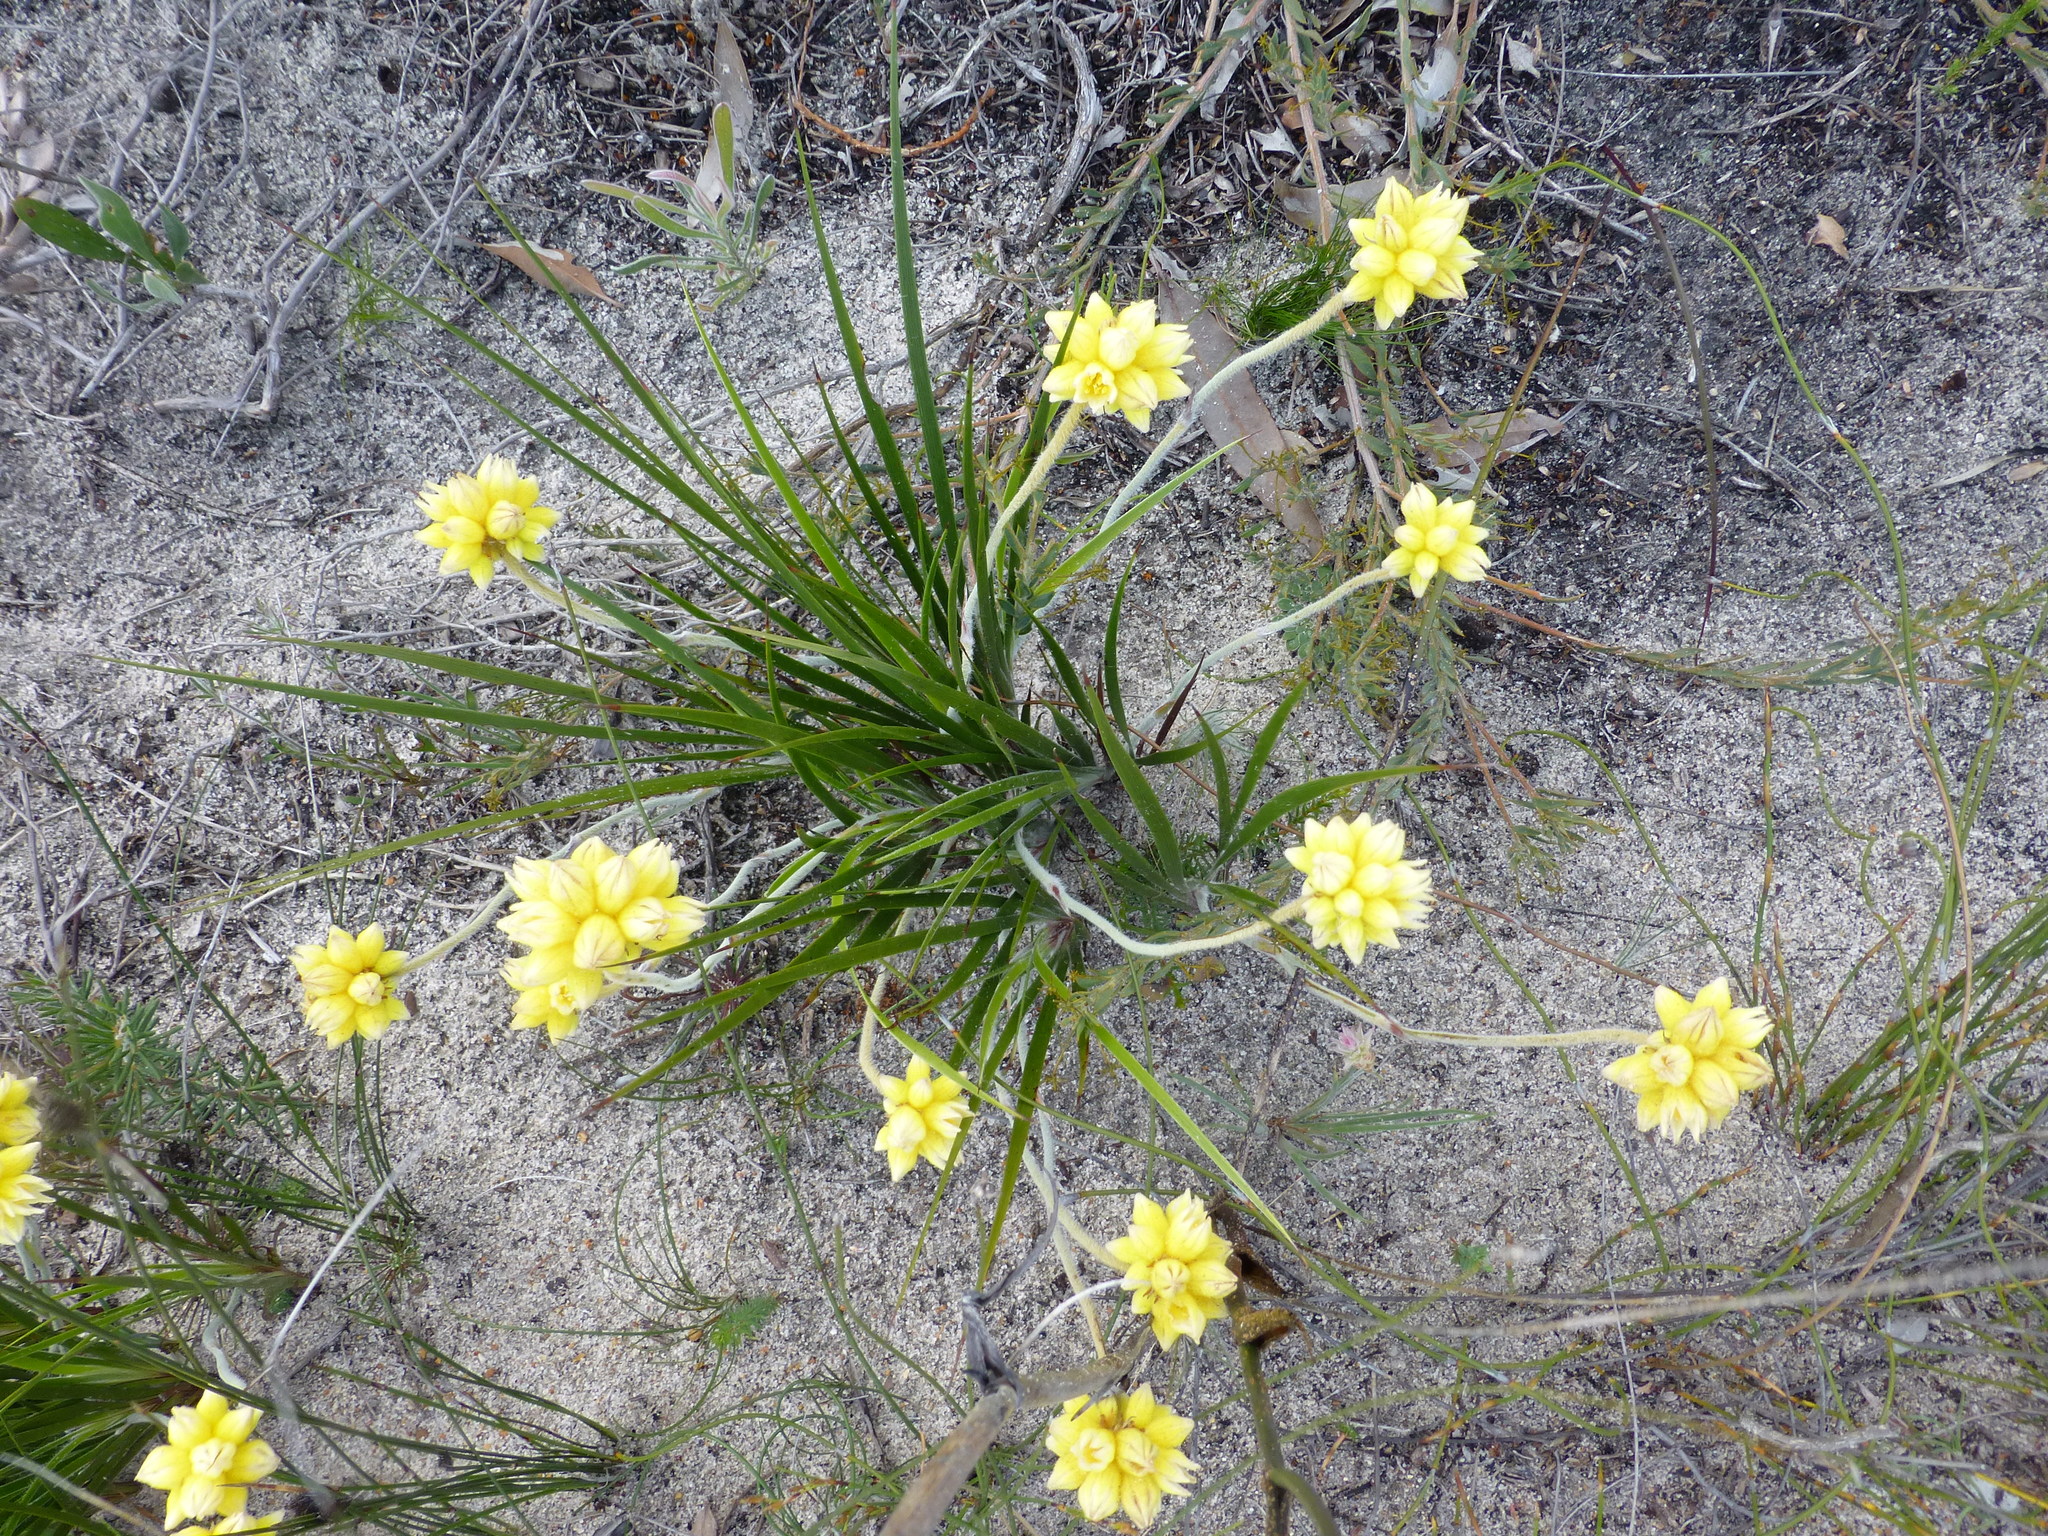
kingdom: Plantae
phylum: Tracheophyta
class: Liliopsida
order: Commelinales
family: Haemodoraceae
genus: Conostylis
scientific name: Conostylis aculeata
